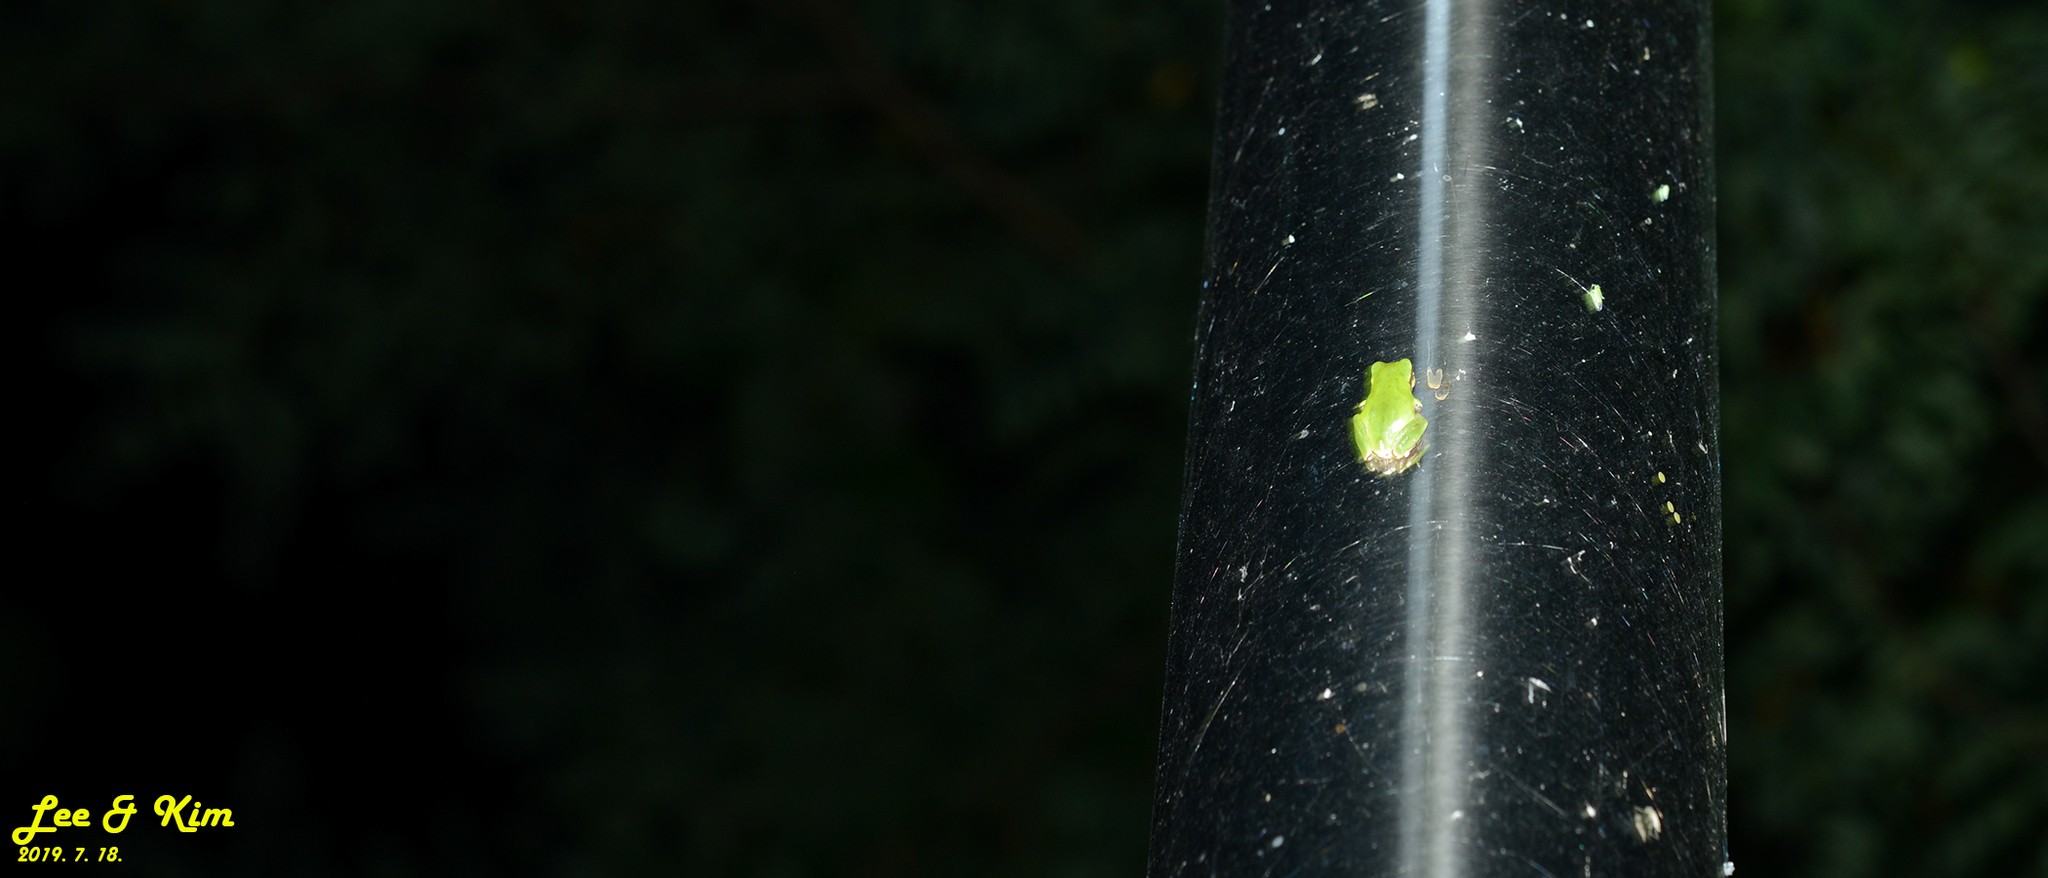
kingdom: Animalia
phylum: Chordata
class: Amphibia
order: Anura
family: Hylidae
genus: Dryophytes
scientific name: Dryophytes japonicus
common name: Japanese treefrog
